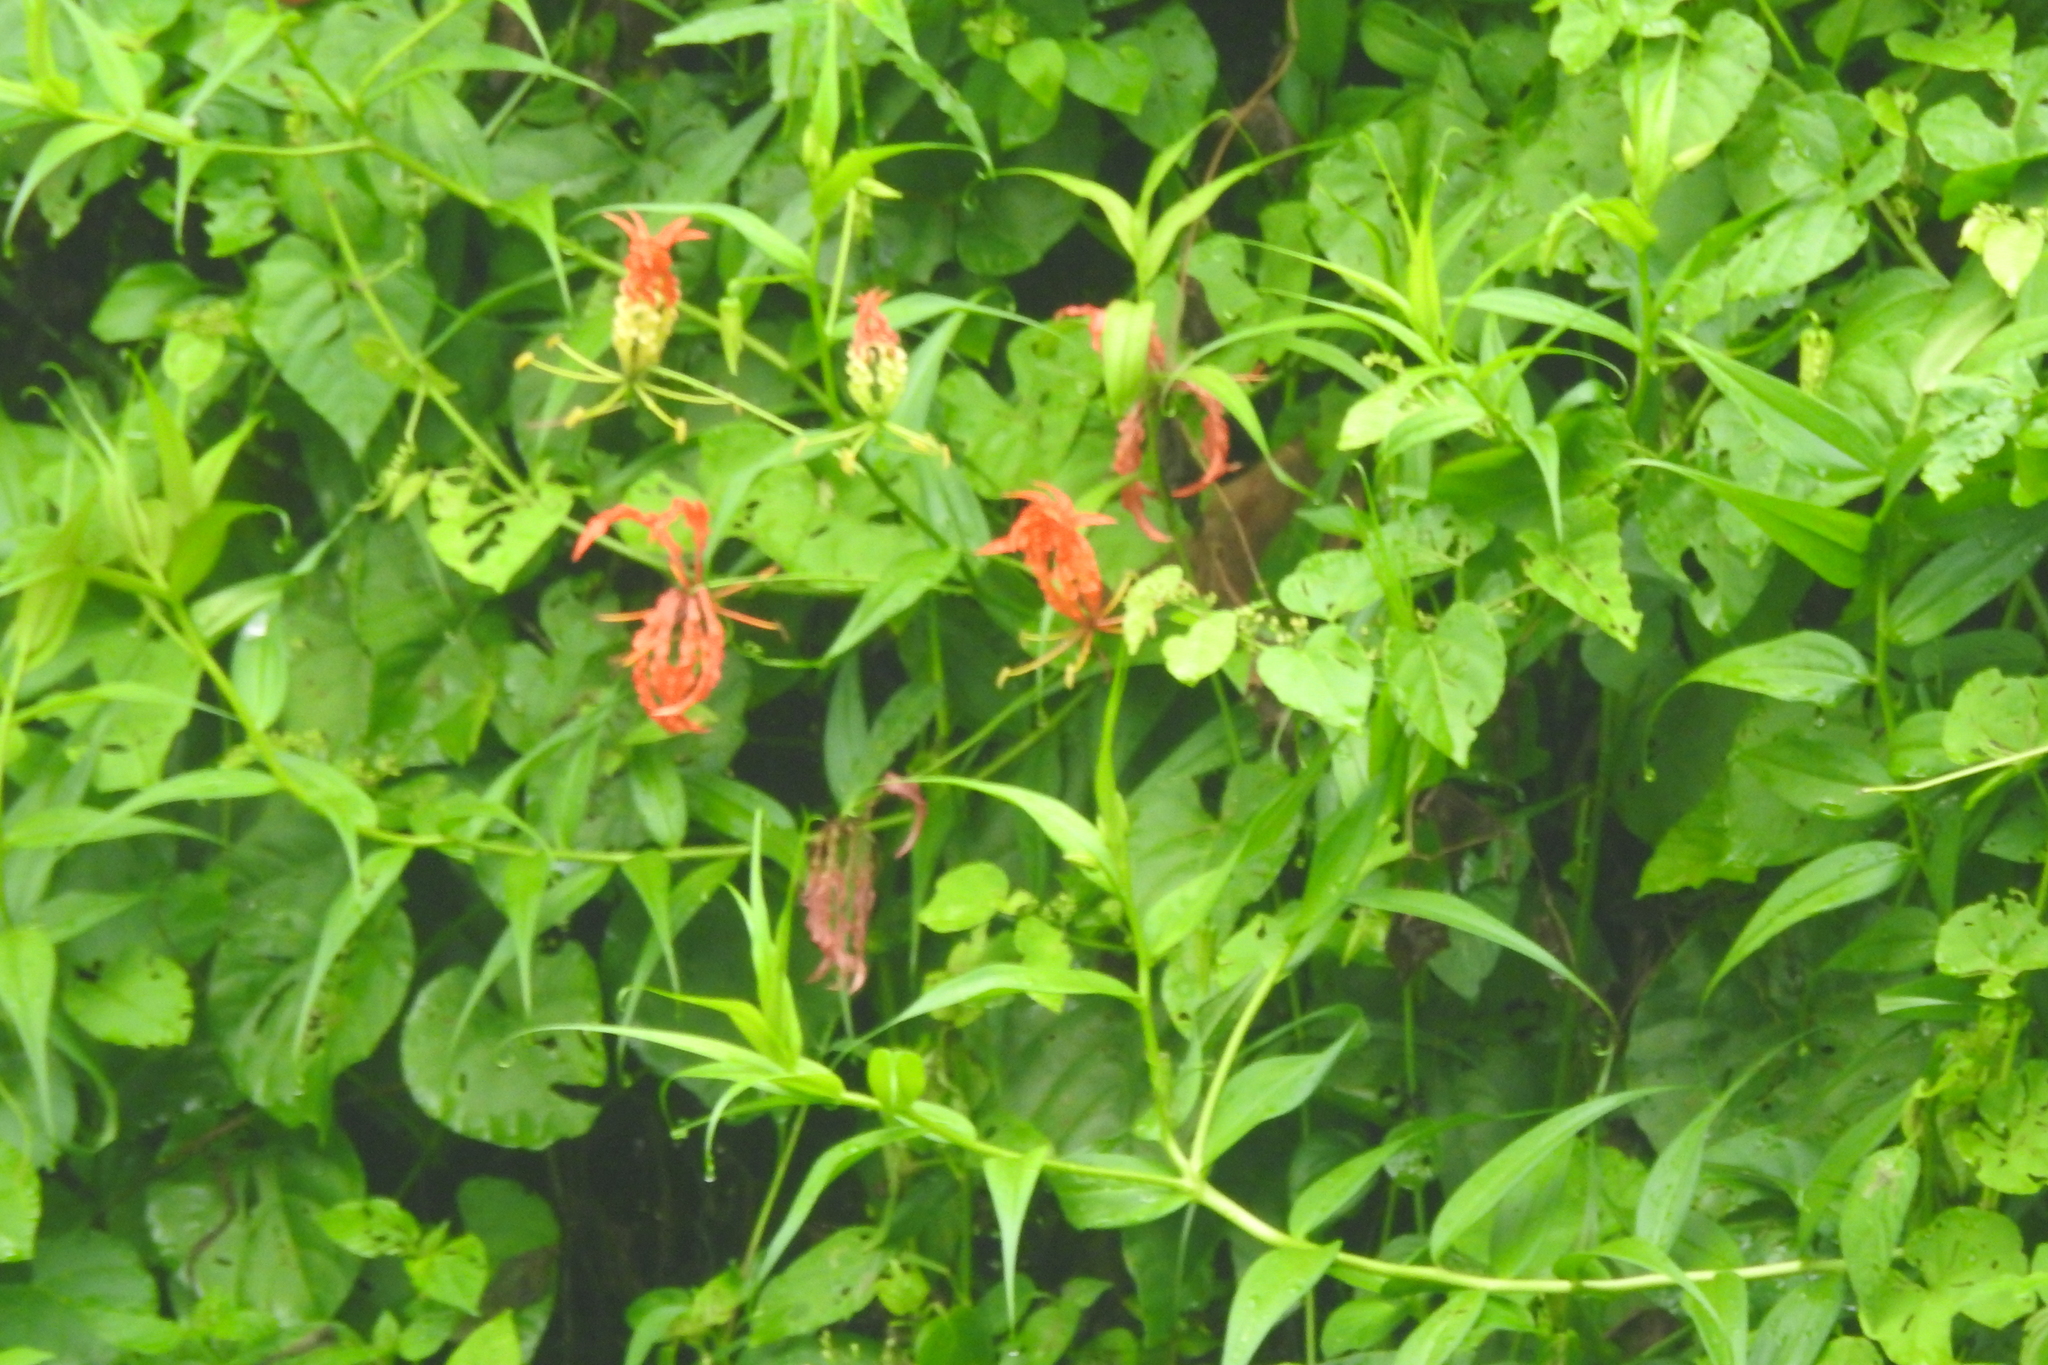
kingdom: Plantae
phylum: Tracheophyta
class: Liliopsida
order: Liliales
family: Colchicaceae
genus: Gloriosa
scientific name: Gloriosa superba
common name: Flame lily
